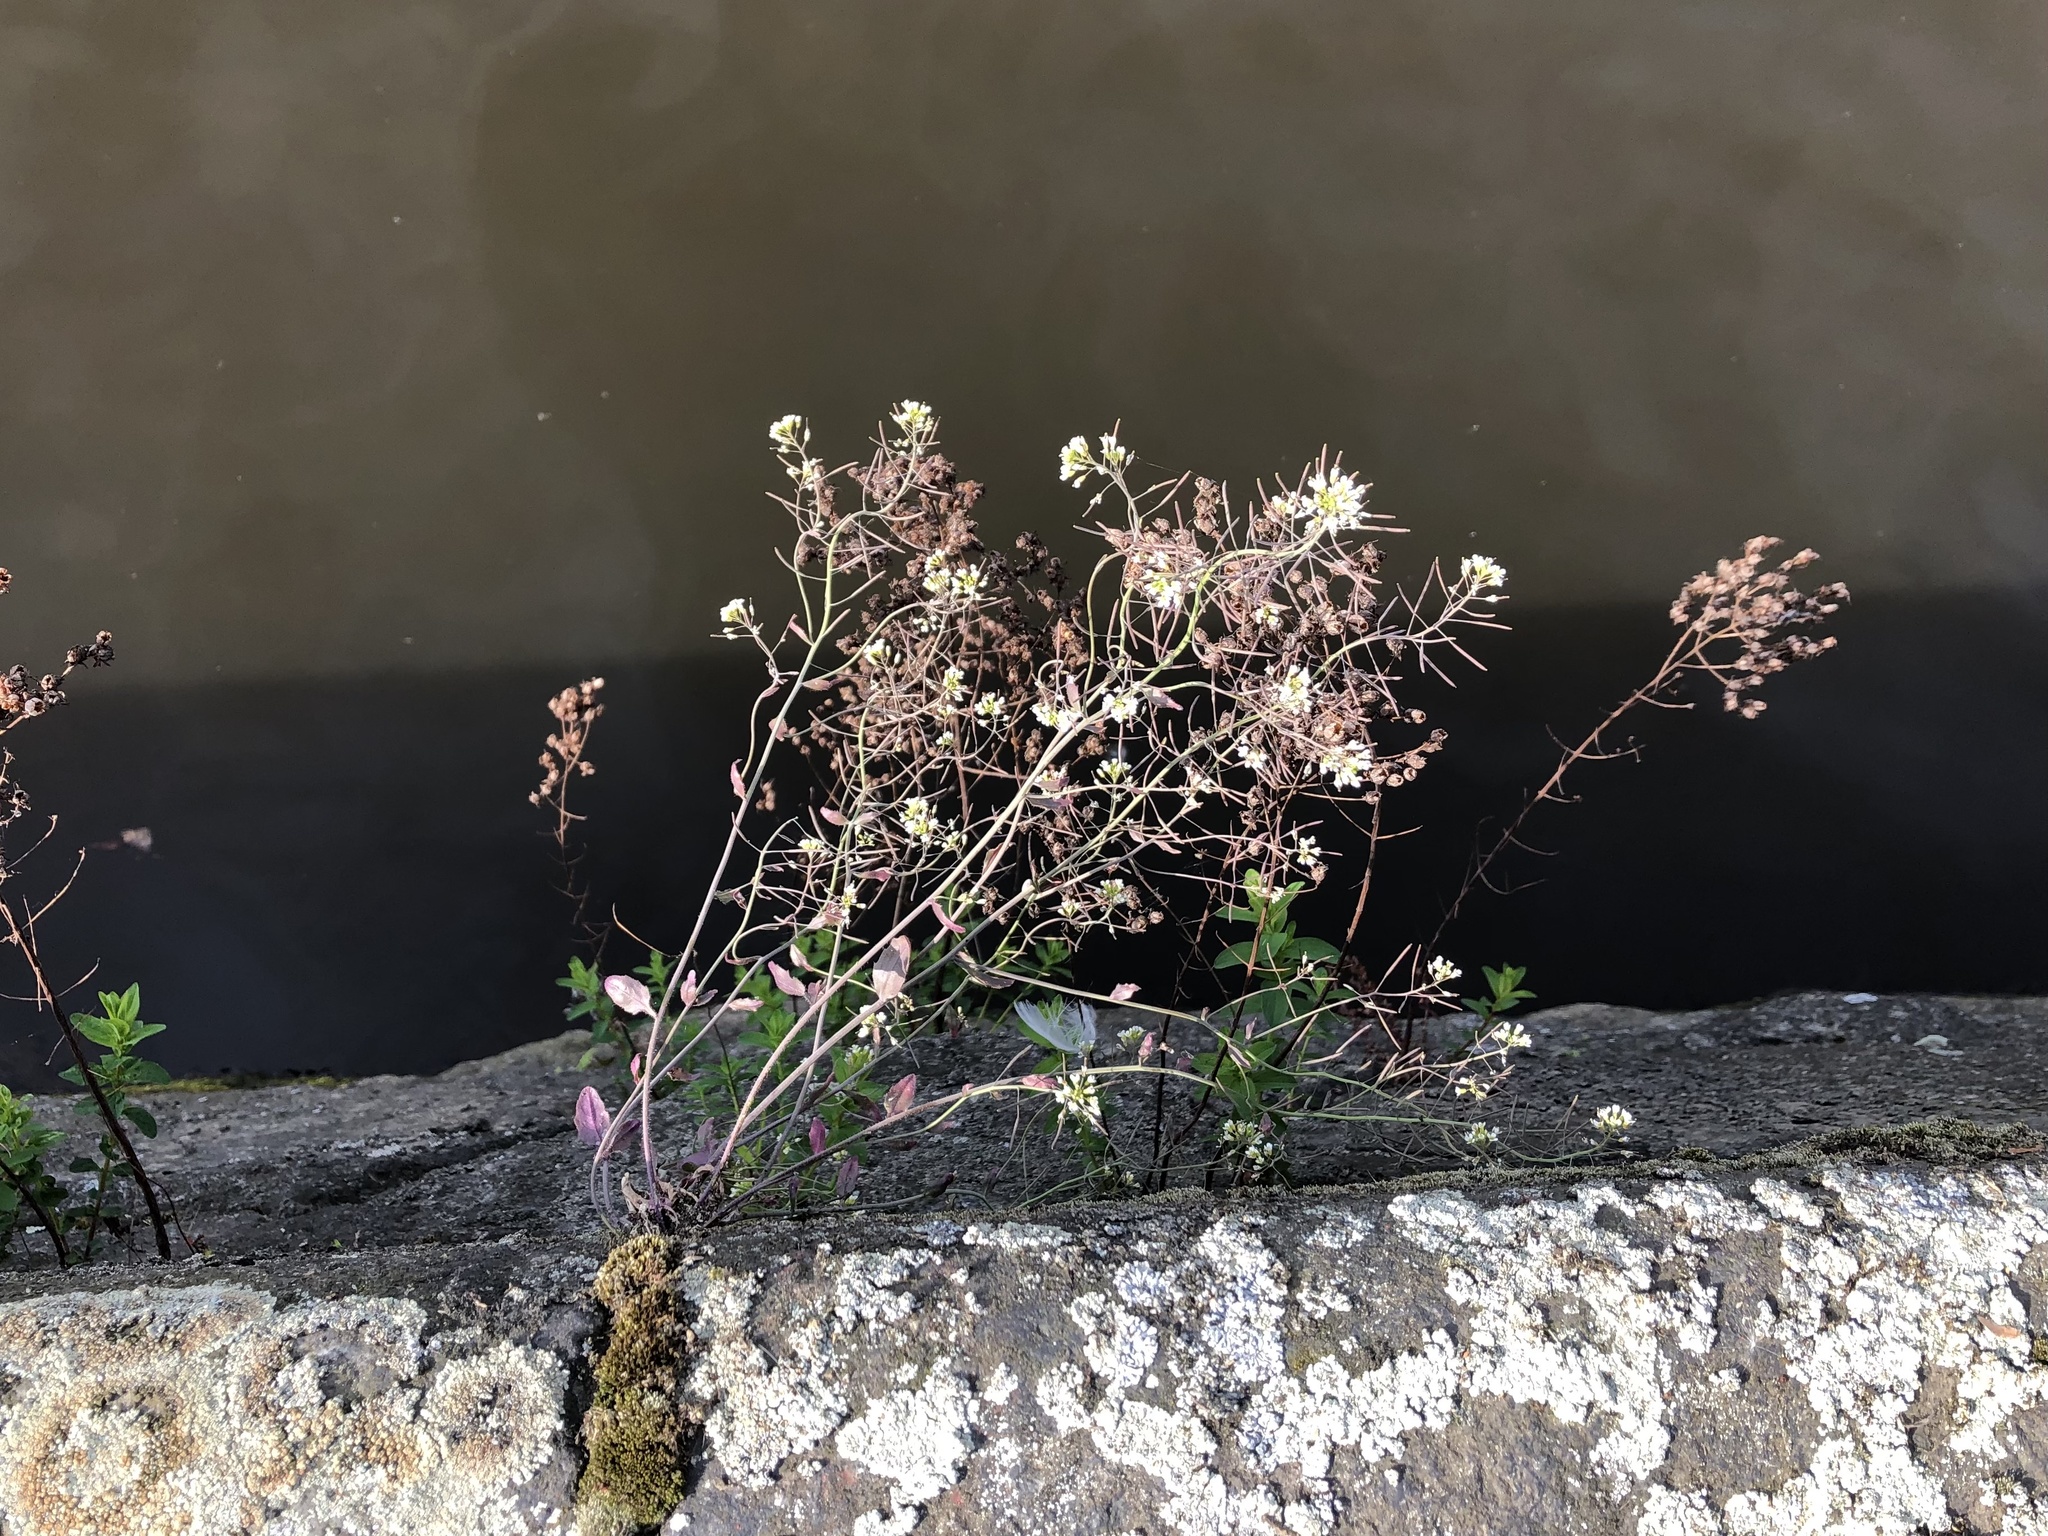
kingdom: Plantae
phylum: Tracheophyta
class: Magnoliopsida
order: Brassicales
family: Brassicaceae
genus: Arabidopsis
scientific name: Arabidopsis thaliana
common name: Thale cress
